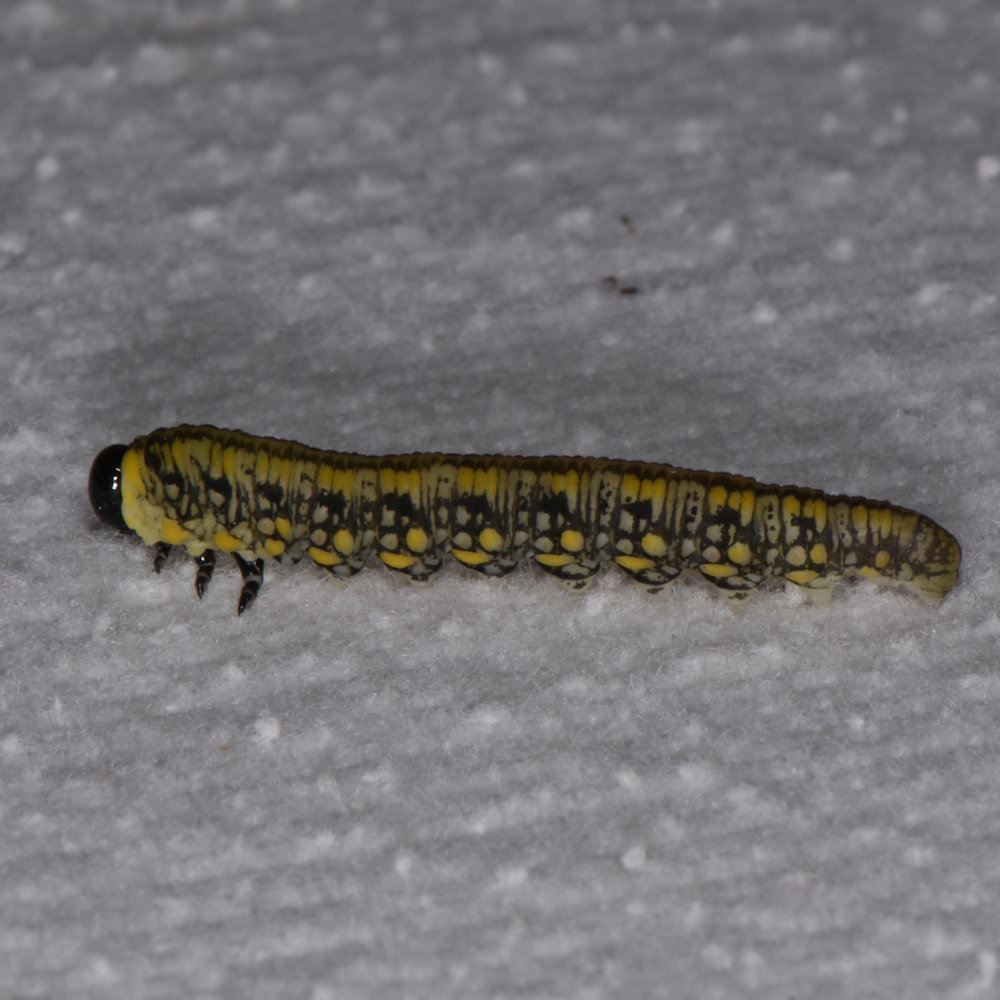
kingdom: Animalia
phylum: Arthropoda
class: Insecta
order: Hymenoptera
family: Diprionidae
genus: Diprion
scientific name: Diprion similis
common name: Pine sawfly
